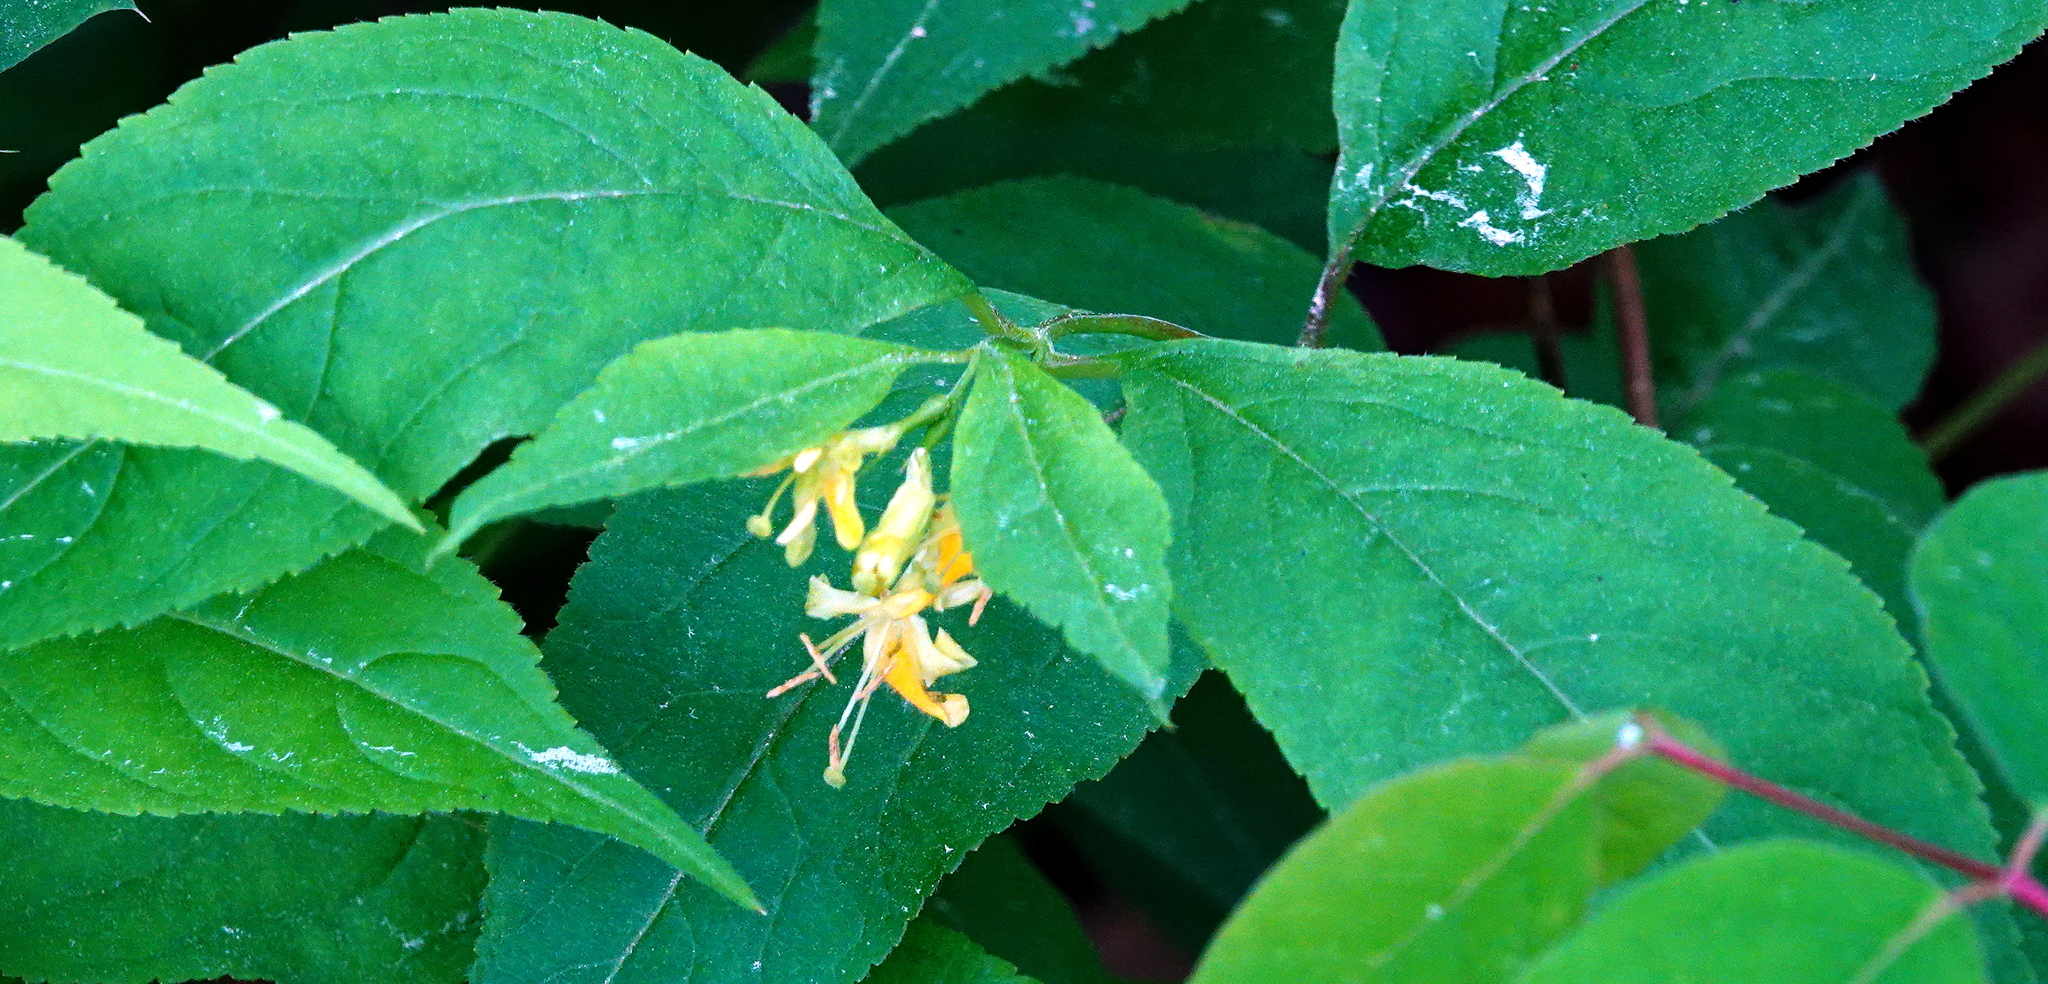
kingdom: Plantae
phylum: Tracheophyta
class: Magnoliopsida
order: Dipsacales
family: Caprifoliaceae
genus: Diervilla
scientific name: Diervilla lonicera
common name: Bush-honeysuckle
